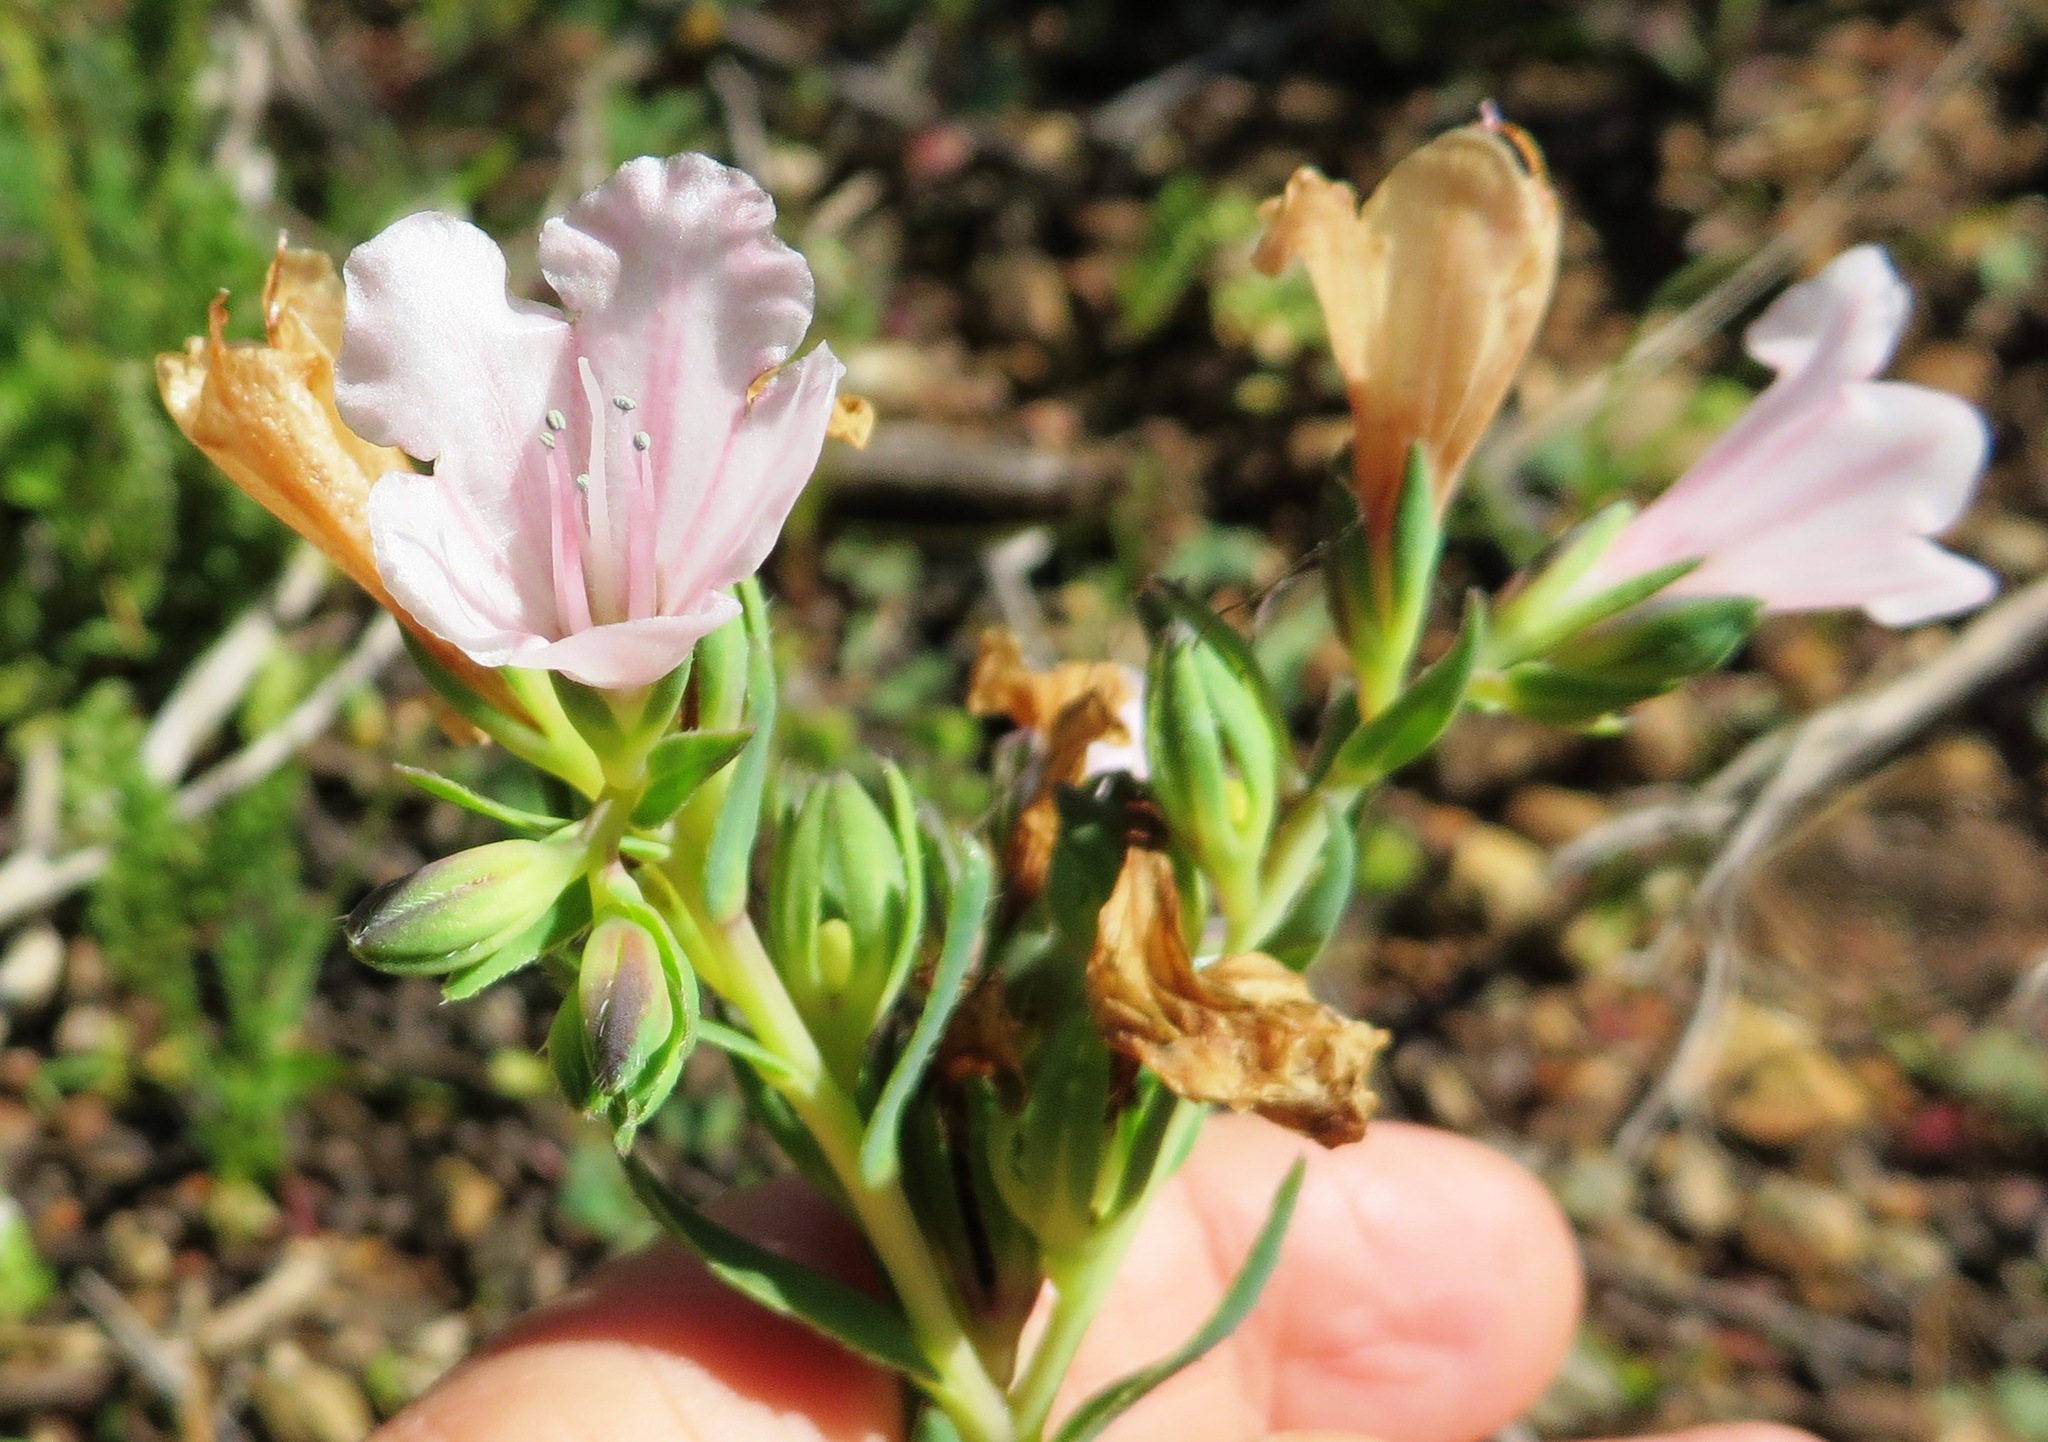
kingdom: Plantae
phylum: Tracheophyta
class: Magnoliopsida
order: Boraginales
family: Boraginaceae
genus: Lobostemon
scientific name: Lobostemon fruticosus
